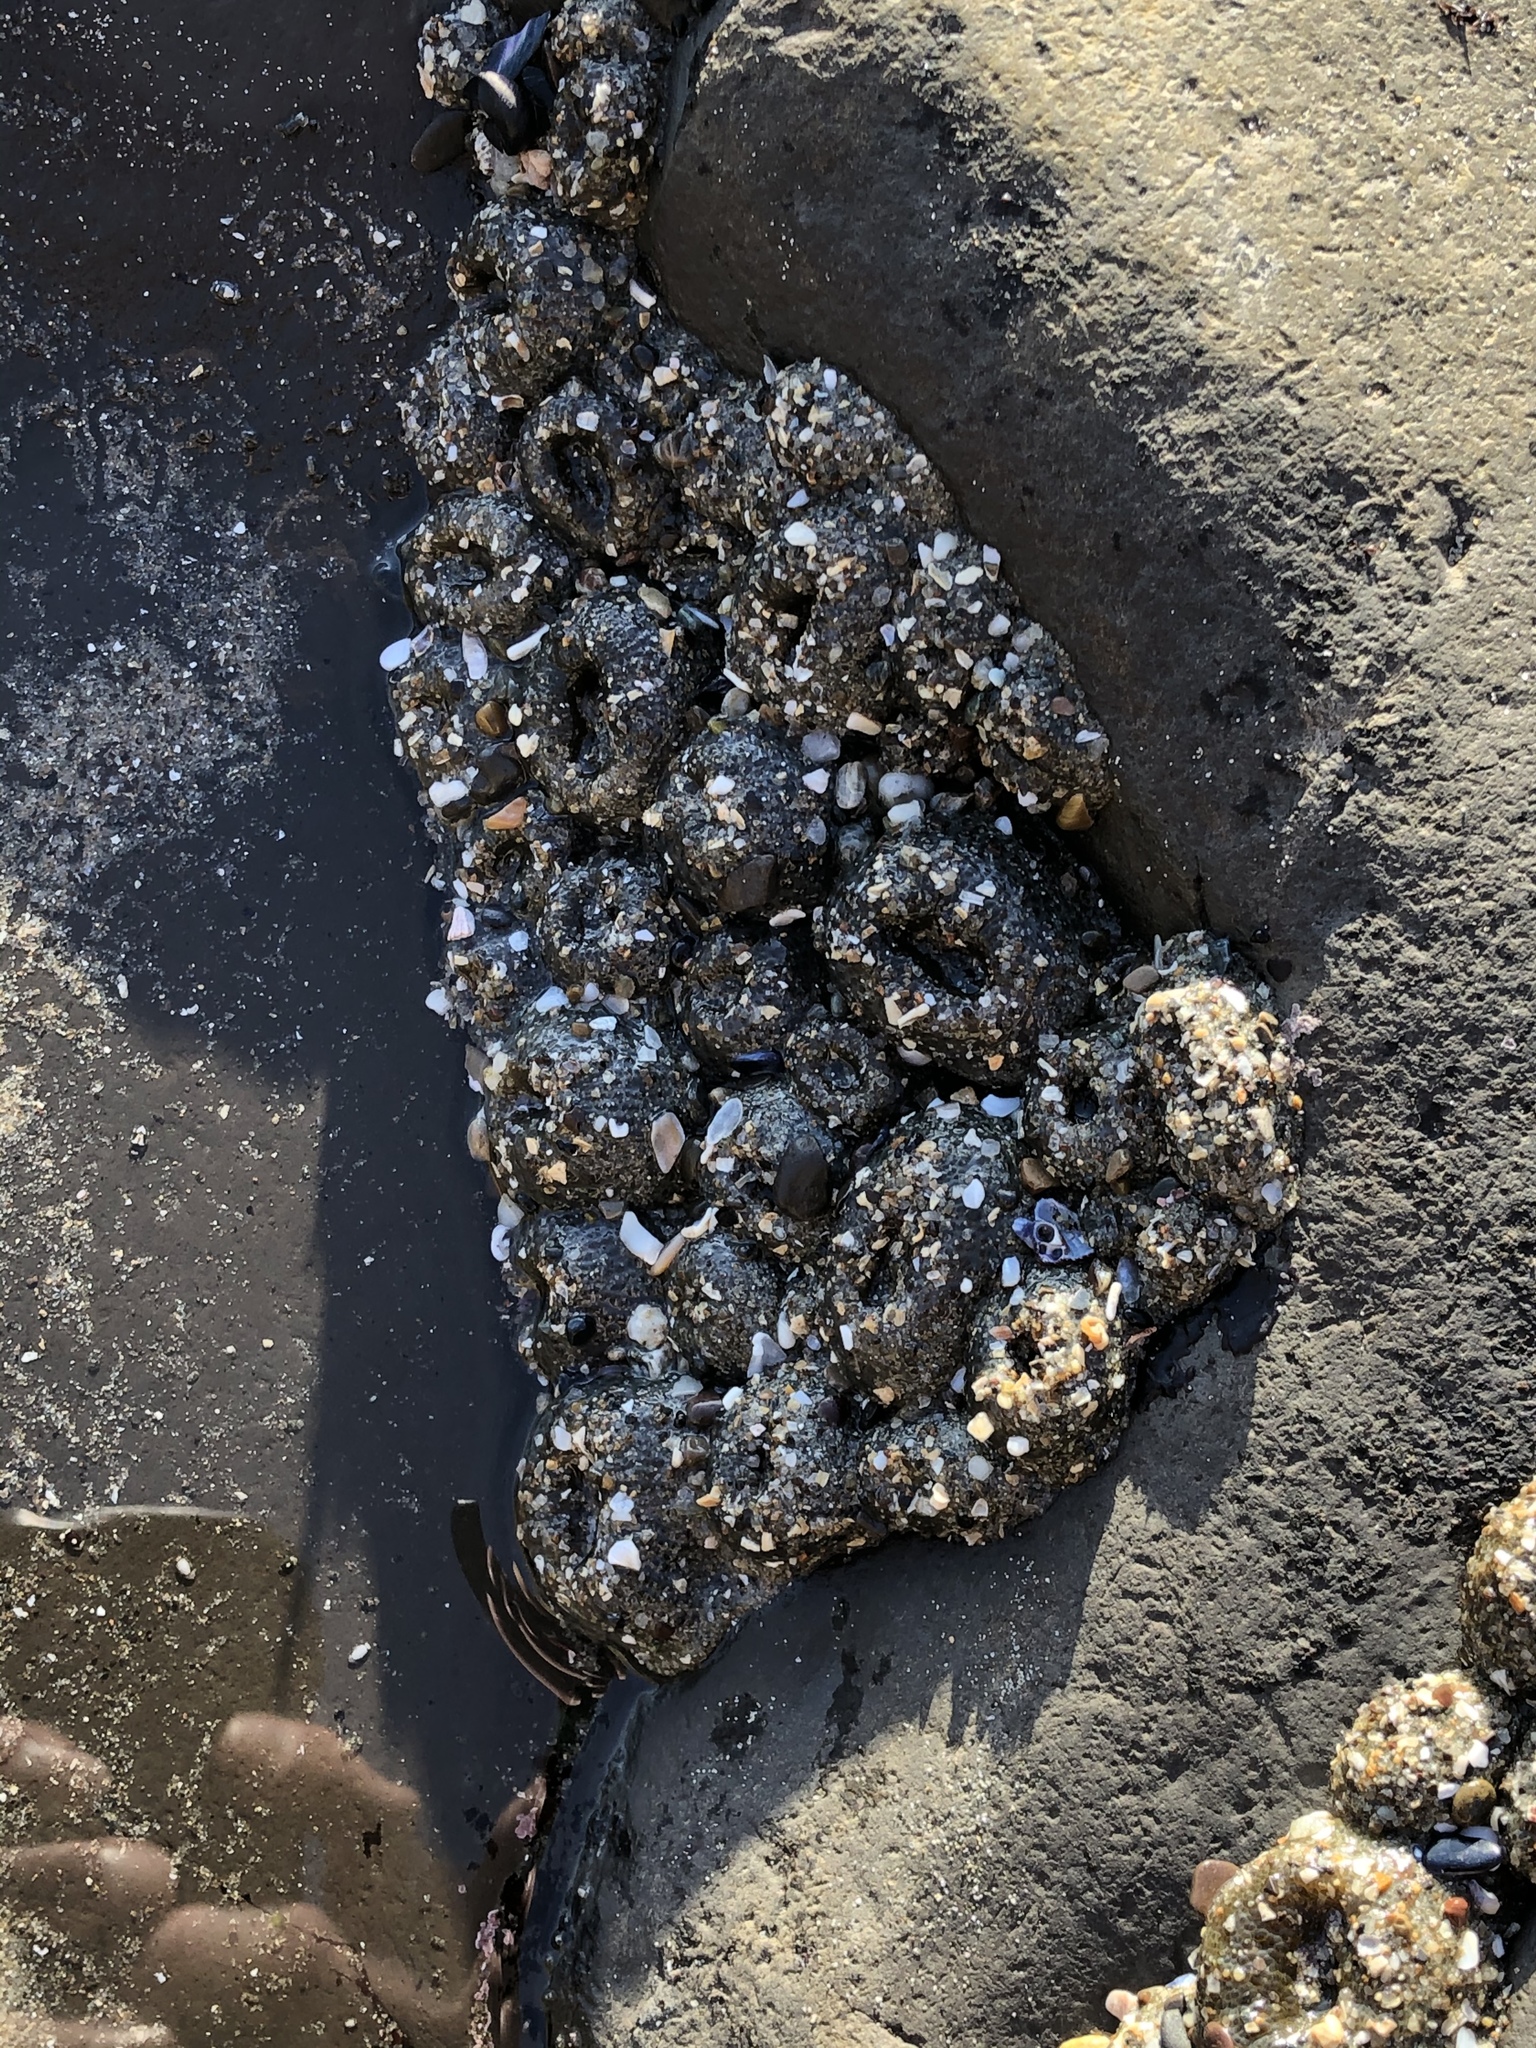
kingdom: Animalia
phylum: Cnidaria
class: Anthozoa
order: Actiniaria
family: Actiniidae
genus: Anthopleura
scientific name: Anthopleura elegantissima
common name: Clonal anemone
